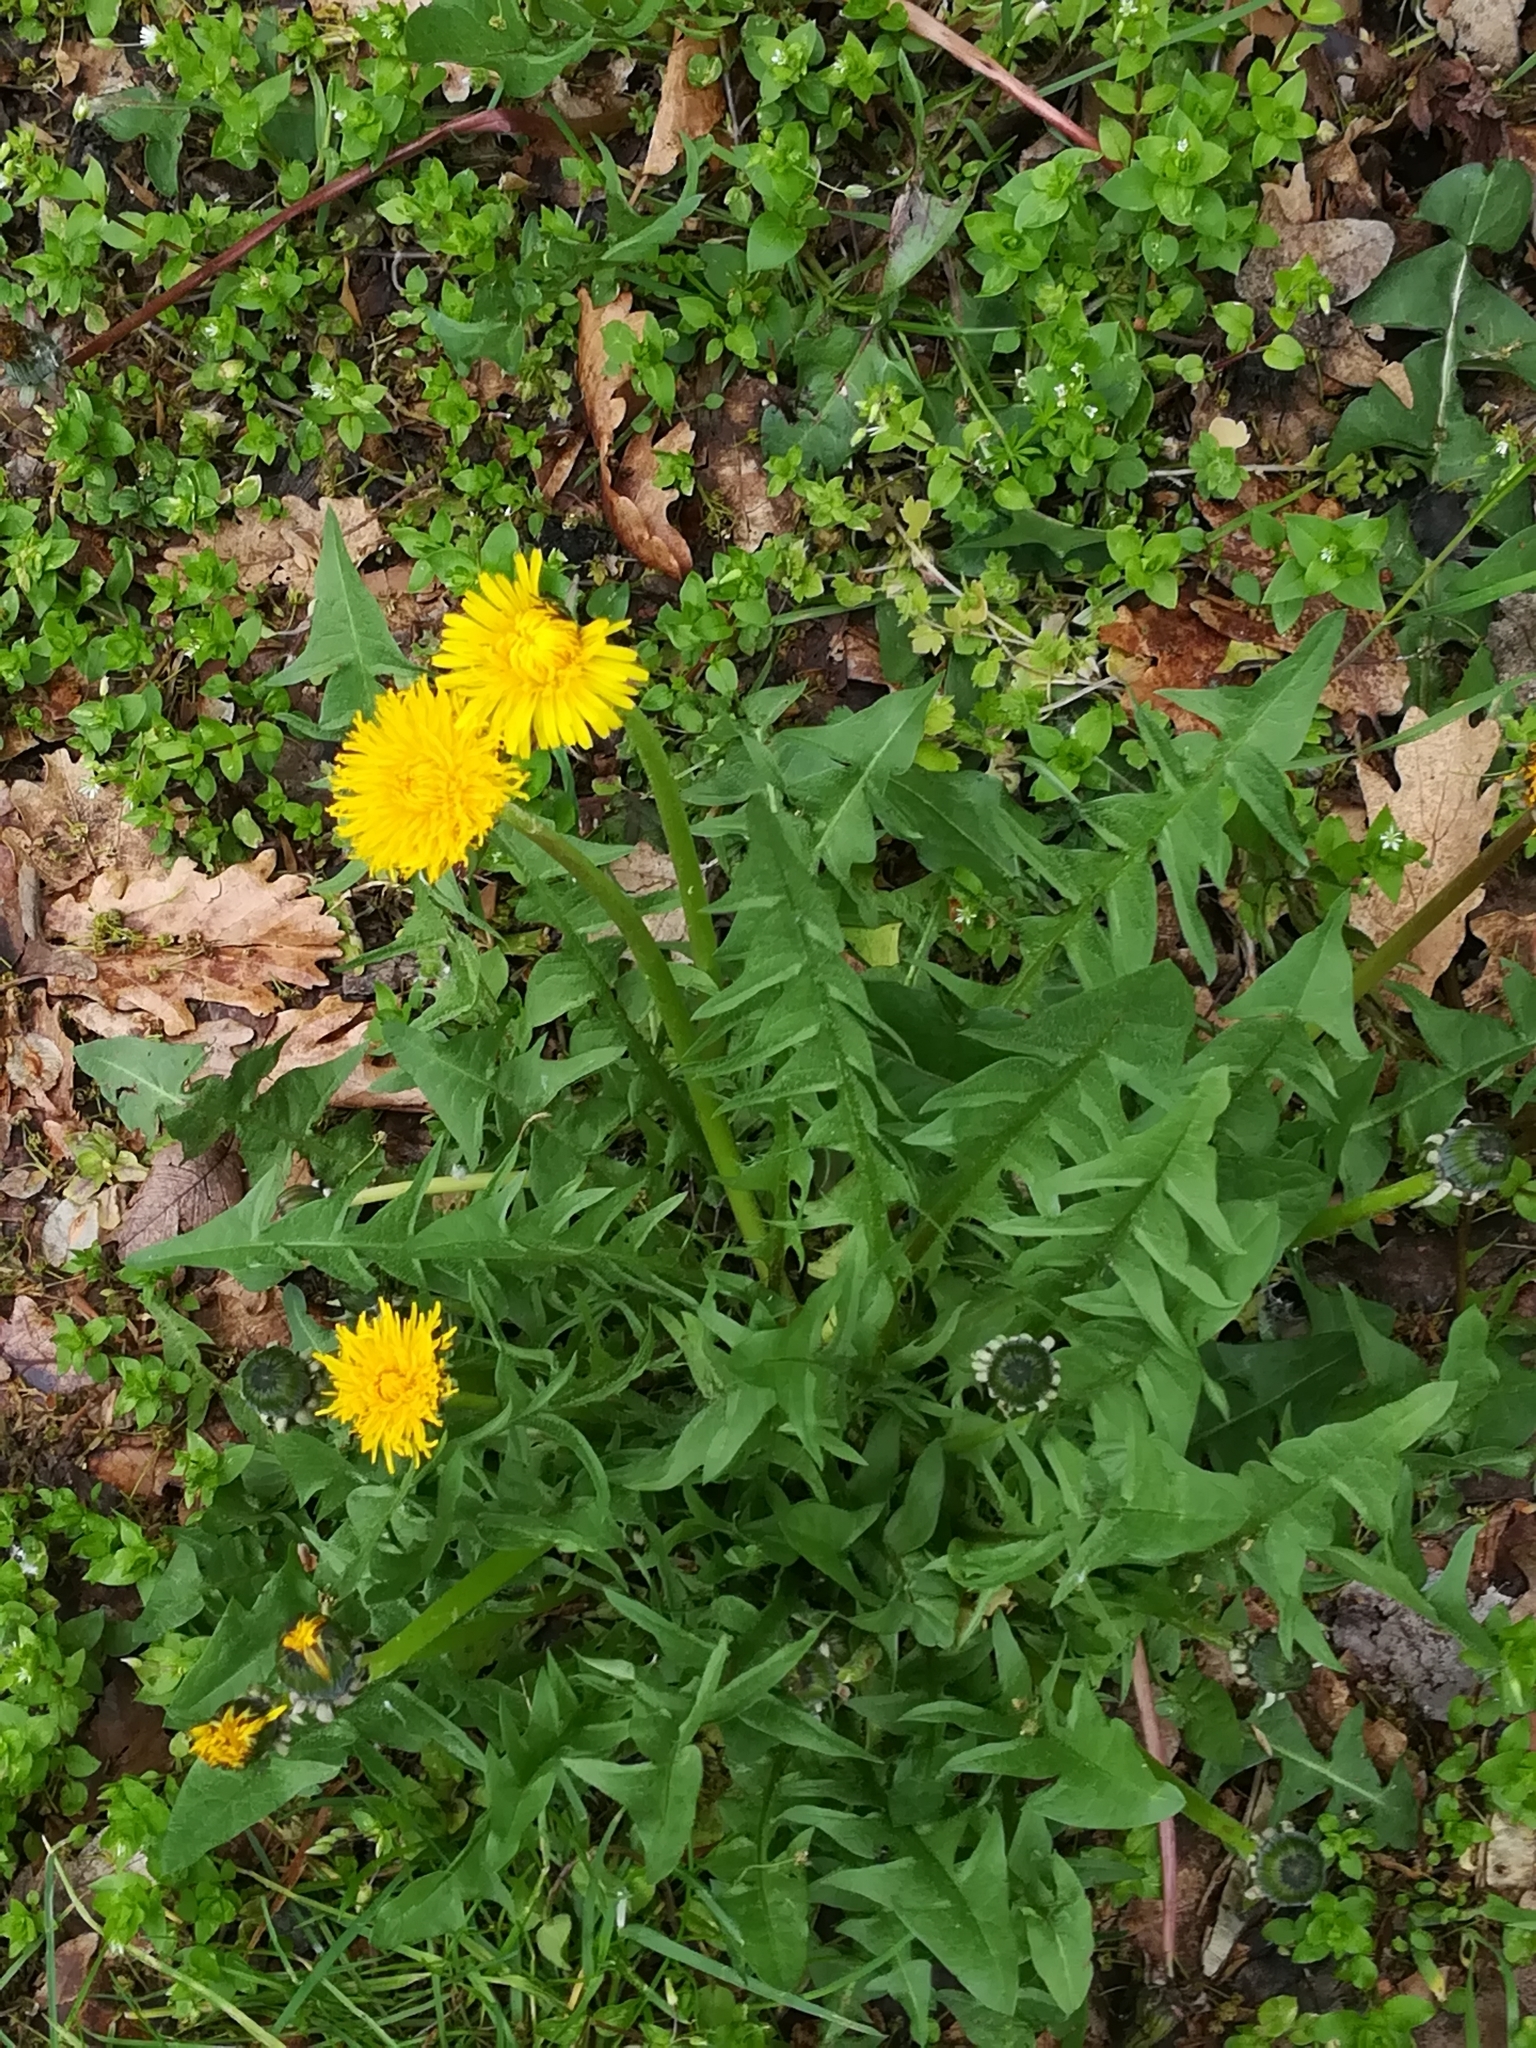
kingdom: Plantae
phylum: Tracheophyta
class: Magnoliopsida
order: Asterales
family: Asteraceae
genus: Taraxacum
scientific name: Taraxacum officinale
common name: Common dandelion
